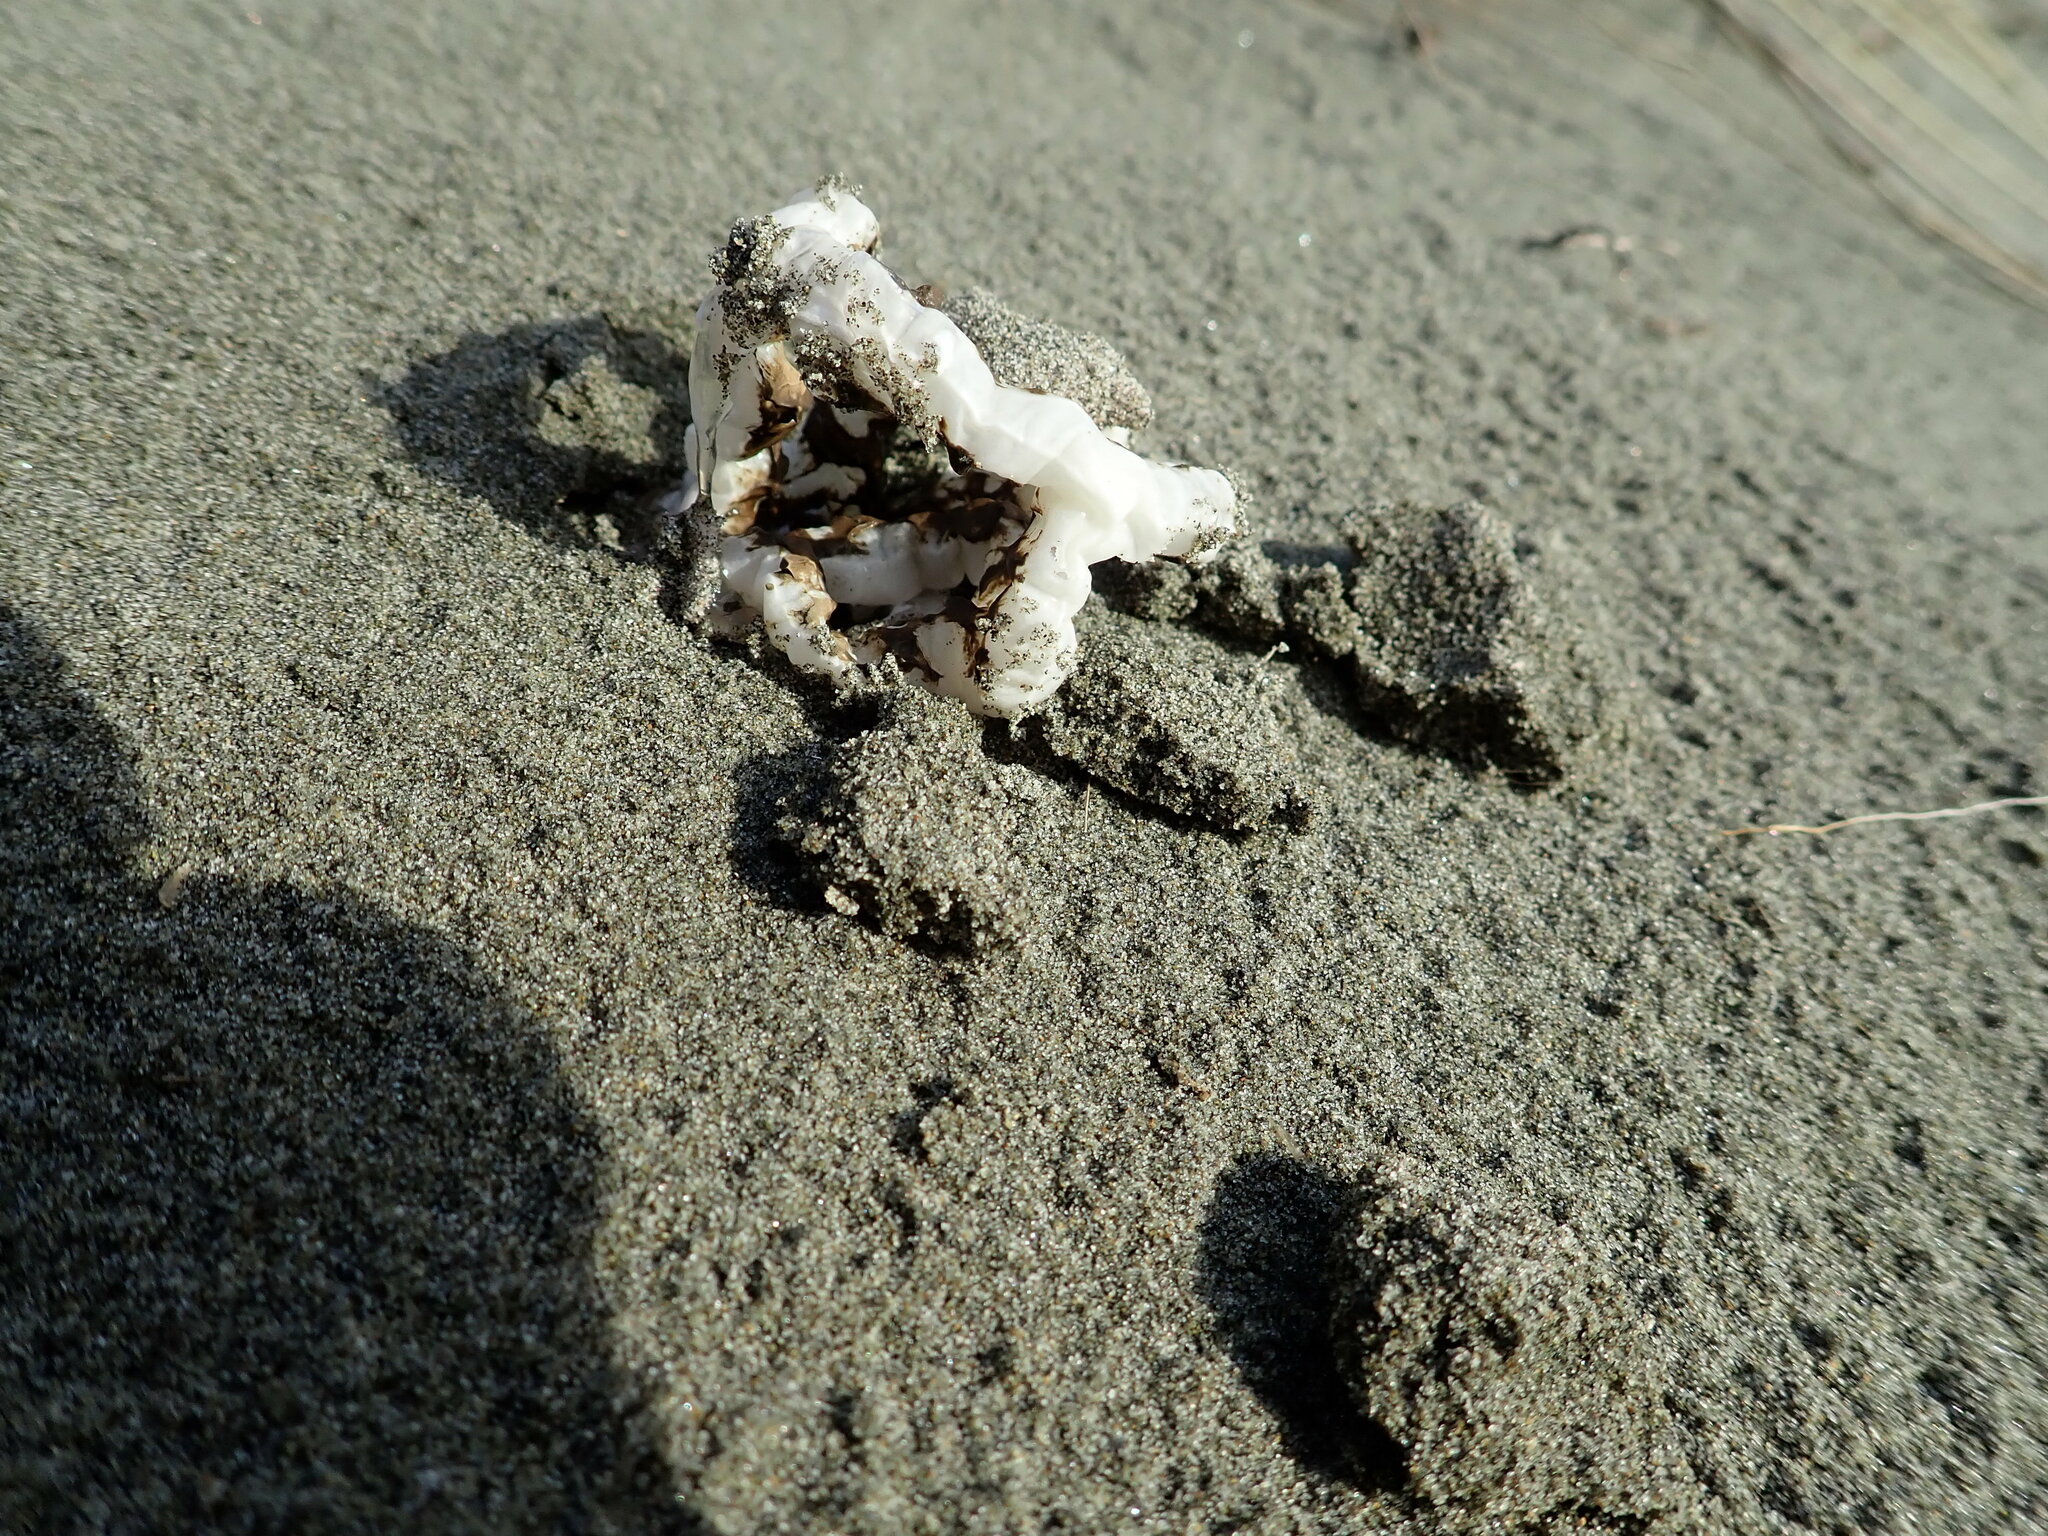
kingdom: Fungi
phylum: Basidiomycota
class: Agaricomycetes
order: Phallales
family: Phallaceae
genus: Ileodictyon
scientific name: Ileodictyon cibarium
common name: Basket fungus
